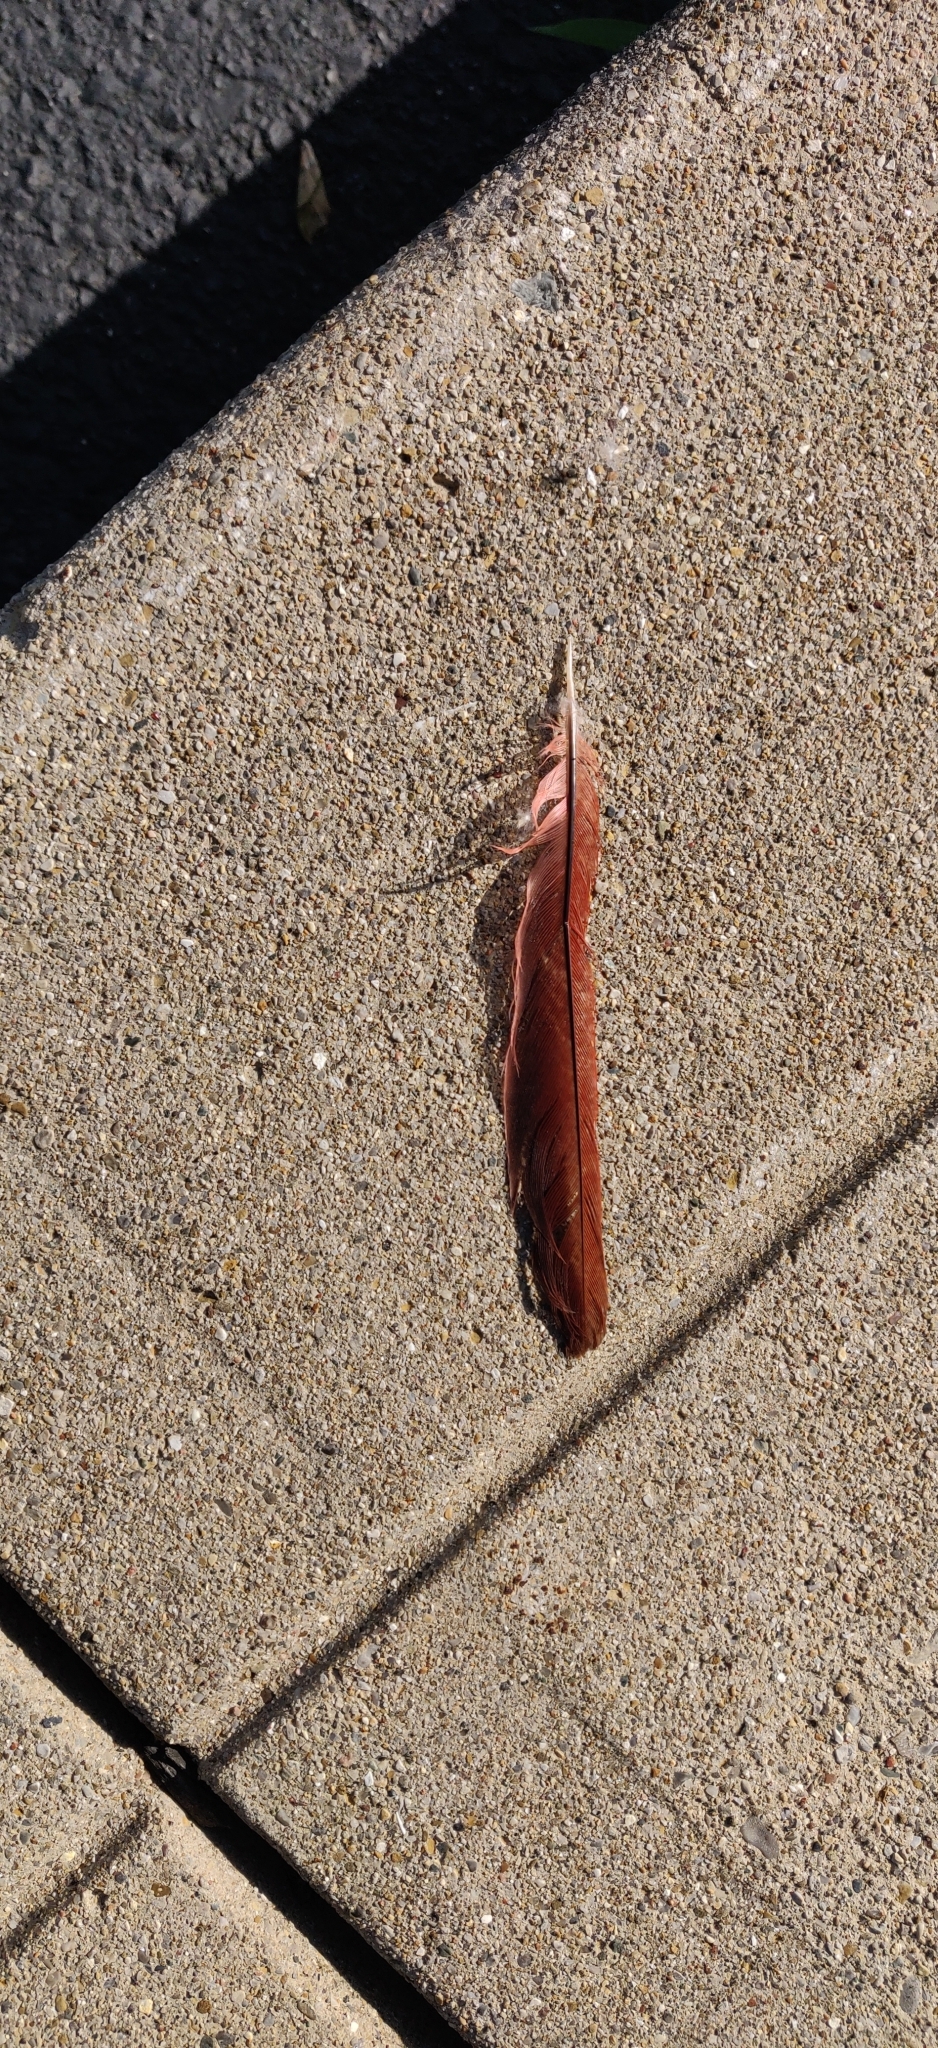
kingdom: Animalia
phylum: Chordata
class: Aves
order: Passeriformes
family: Cardinalidae
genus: Cardinalis
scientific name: Cardinalis cardinalis
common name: Northern cardinal
